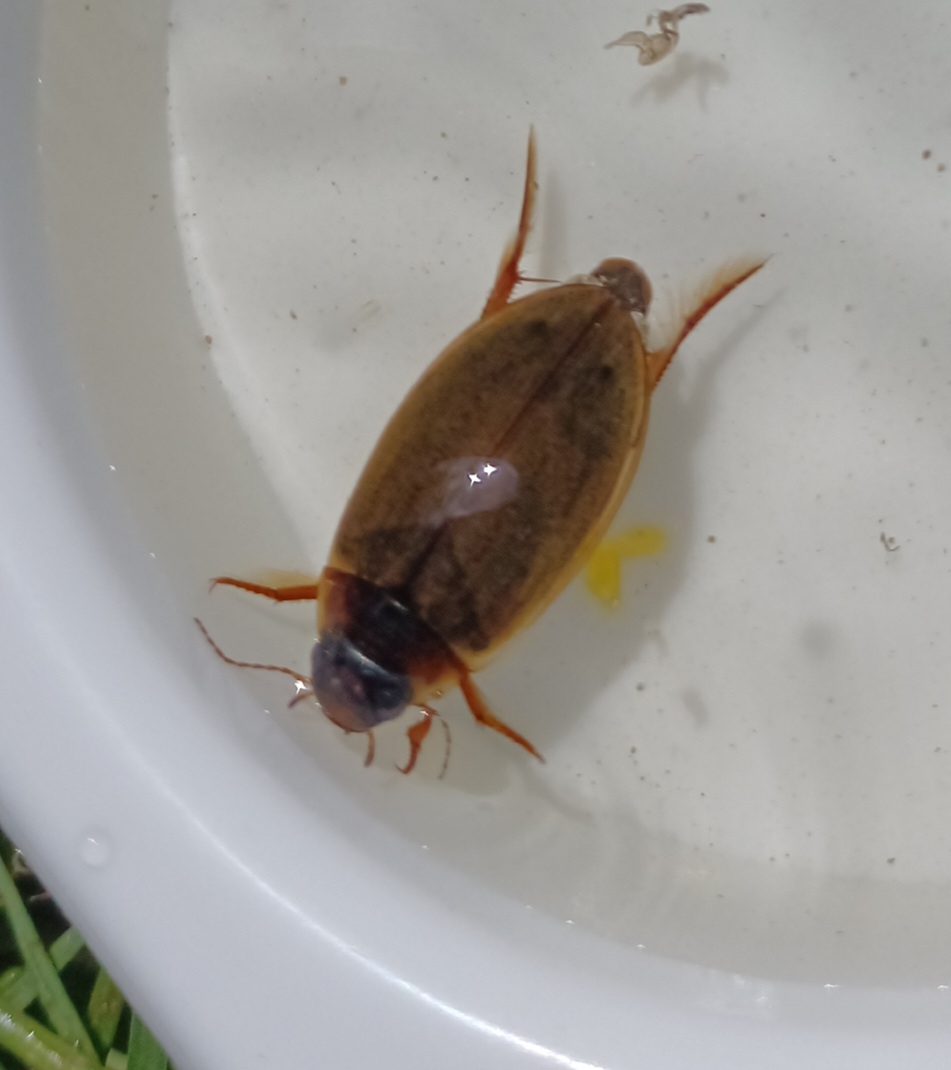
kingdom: Animalia
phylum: Arthropoda
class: Insecta
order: Coleoptera
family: Dytiscidae
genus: Colymbetes
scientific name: Colymbetes fuscus
